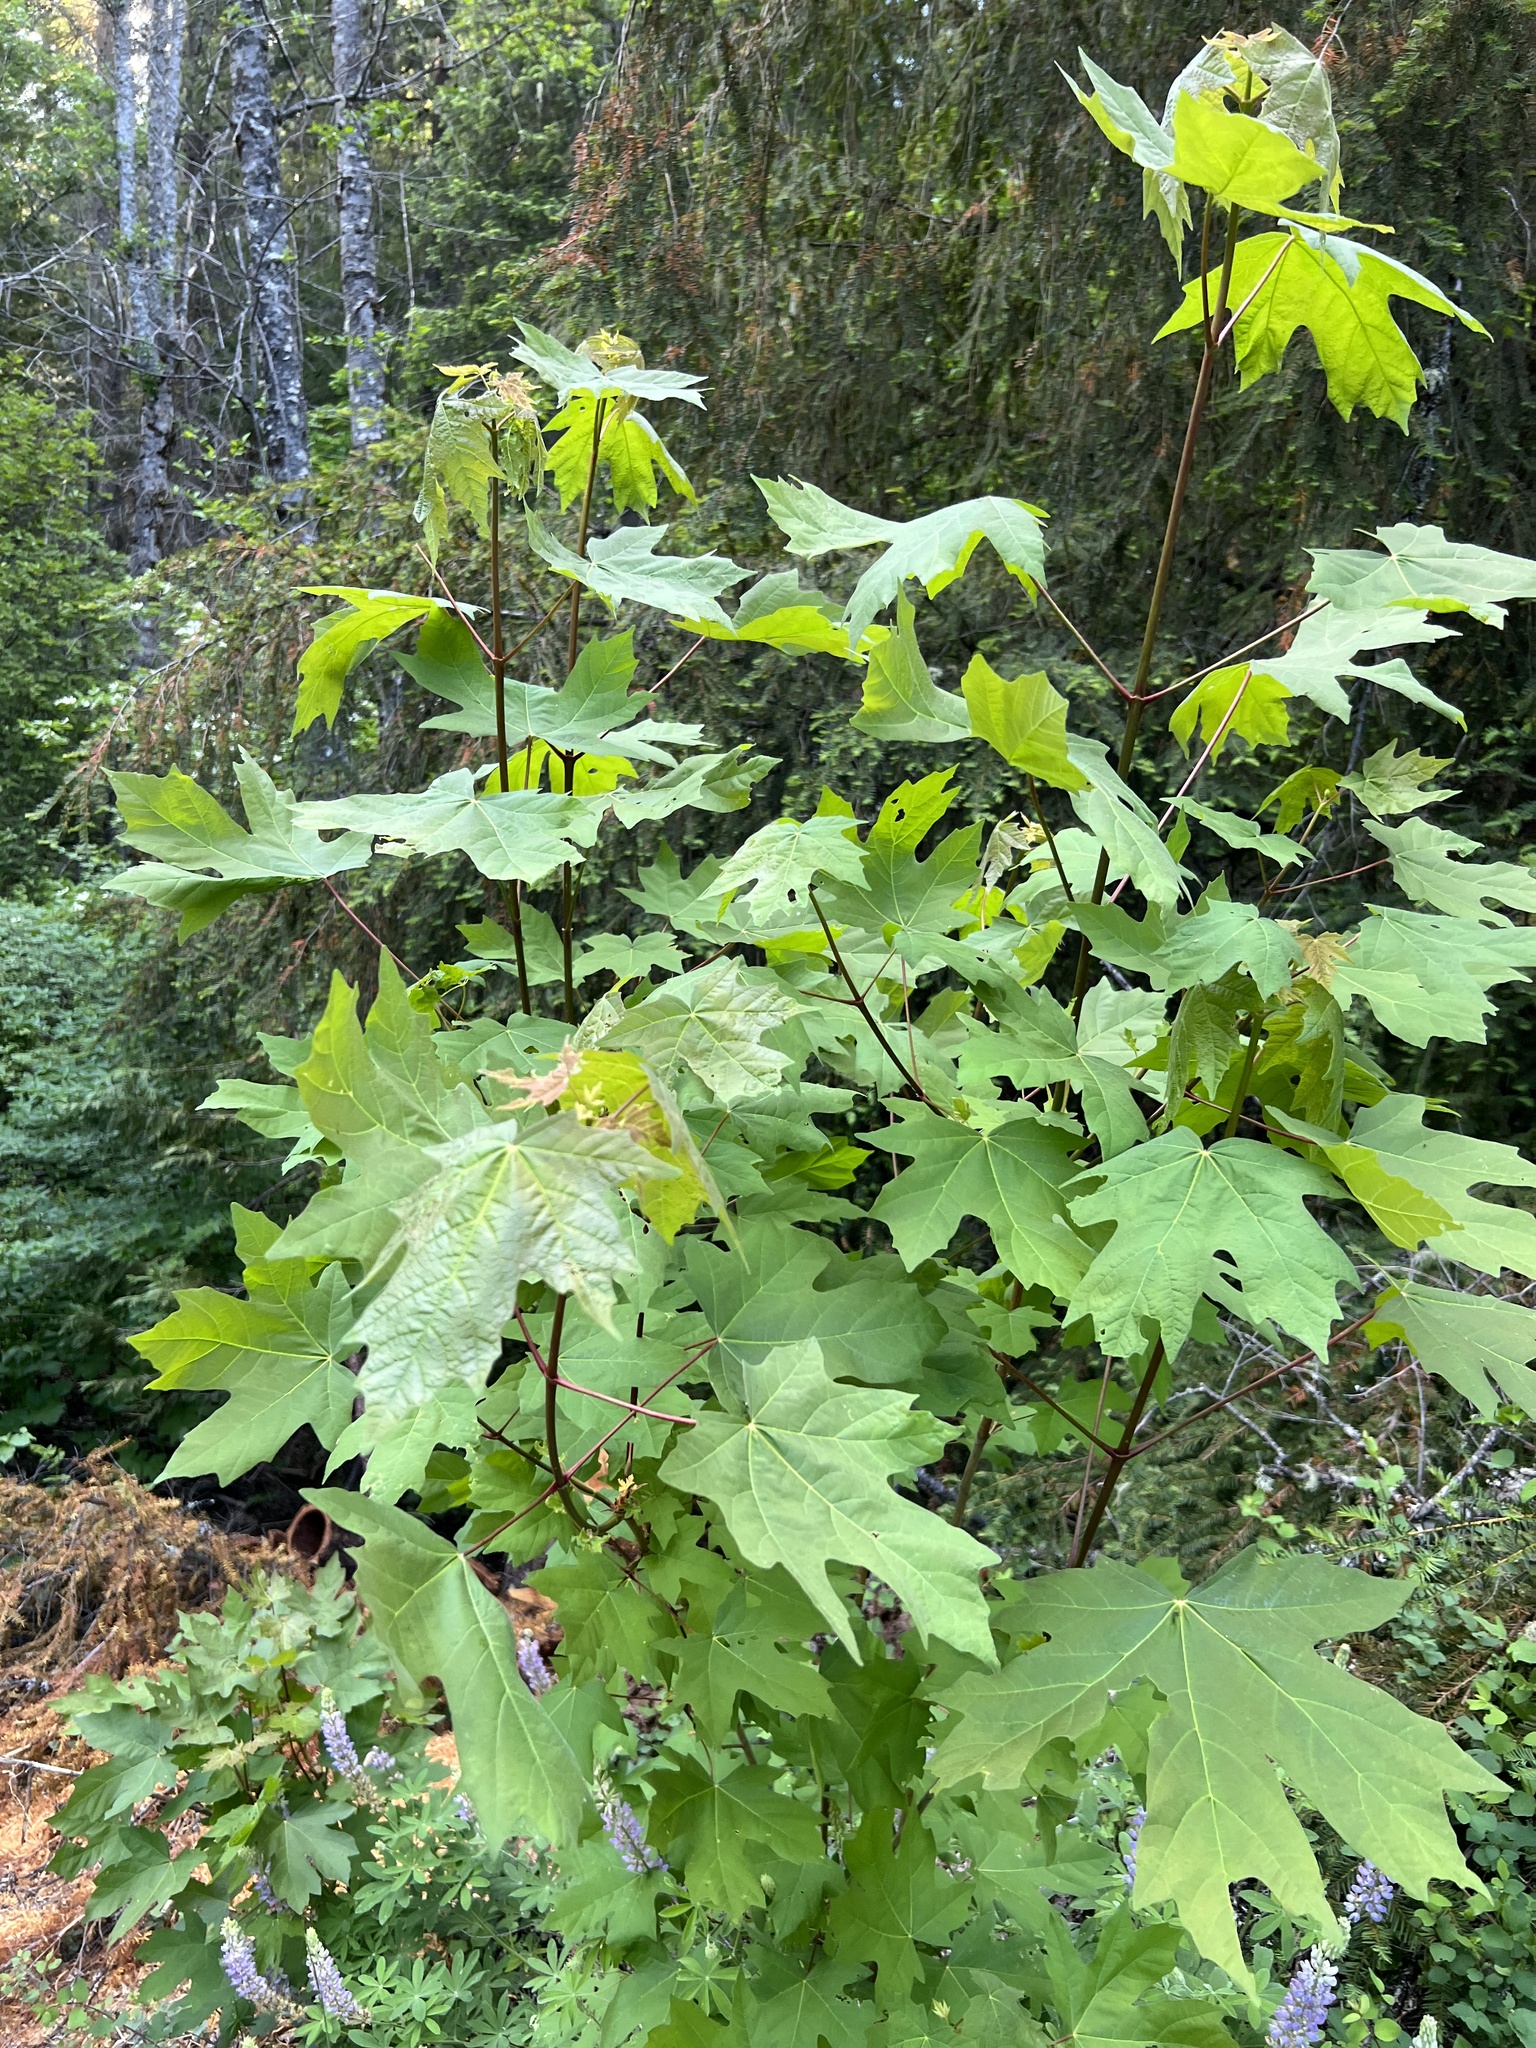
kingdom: Plantae
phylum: Tracheophyta
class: Magnoliopsida
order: Sapindales
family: Sapindaceae
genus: Acer
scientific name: Acer macrophyllum
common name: Oregon maple
